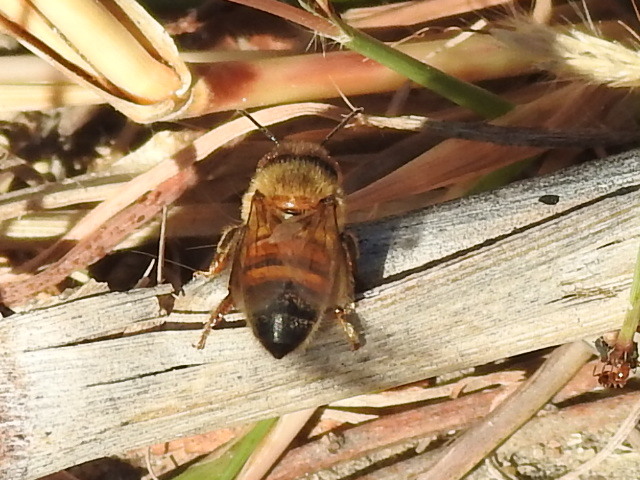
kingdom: Animalia
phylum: Arthropoda
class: Insecta
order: Hymenoptera
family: Apidae
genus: Apis
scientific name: Apis mellifera
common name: Honey bee
